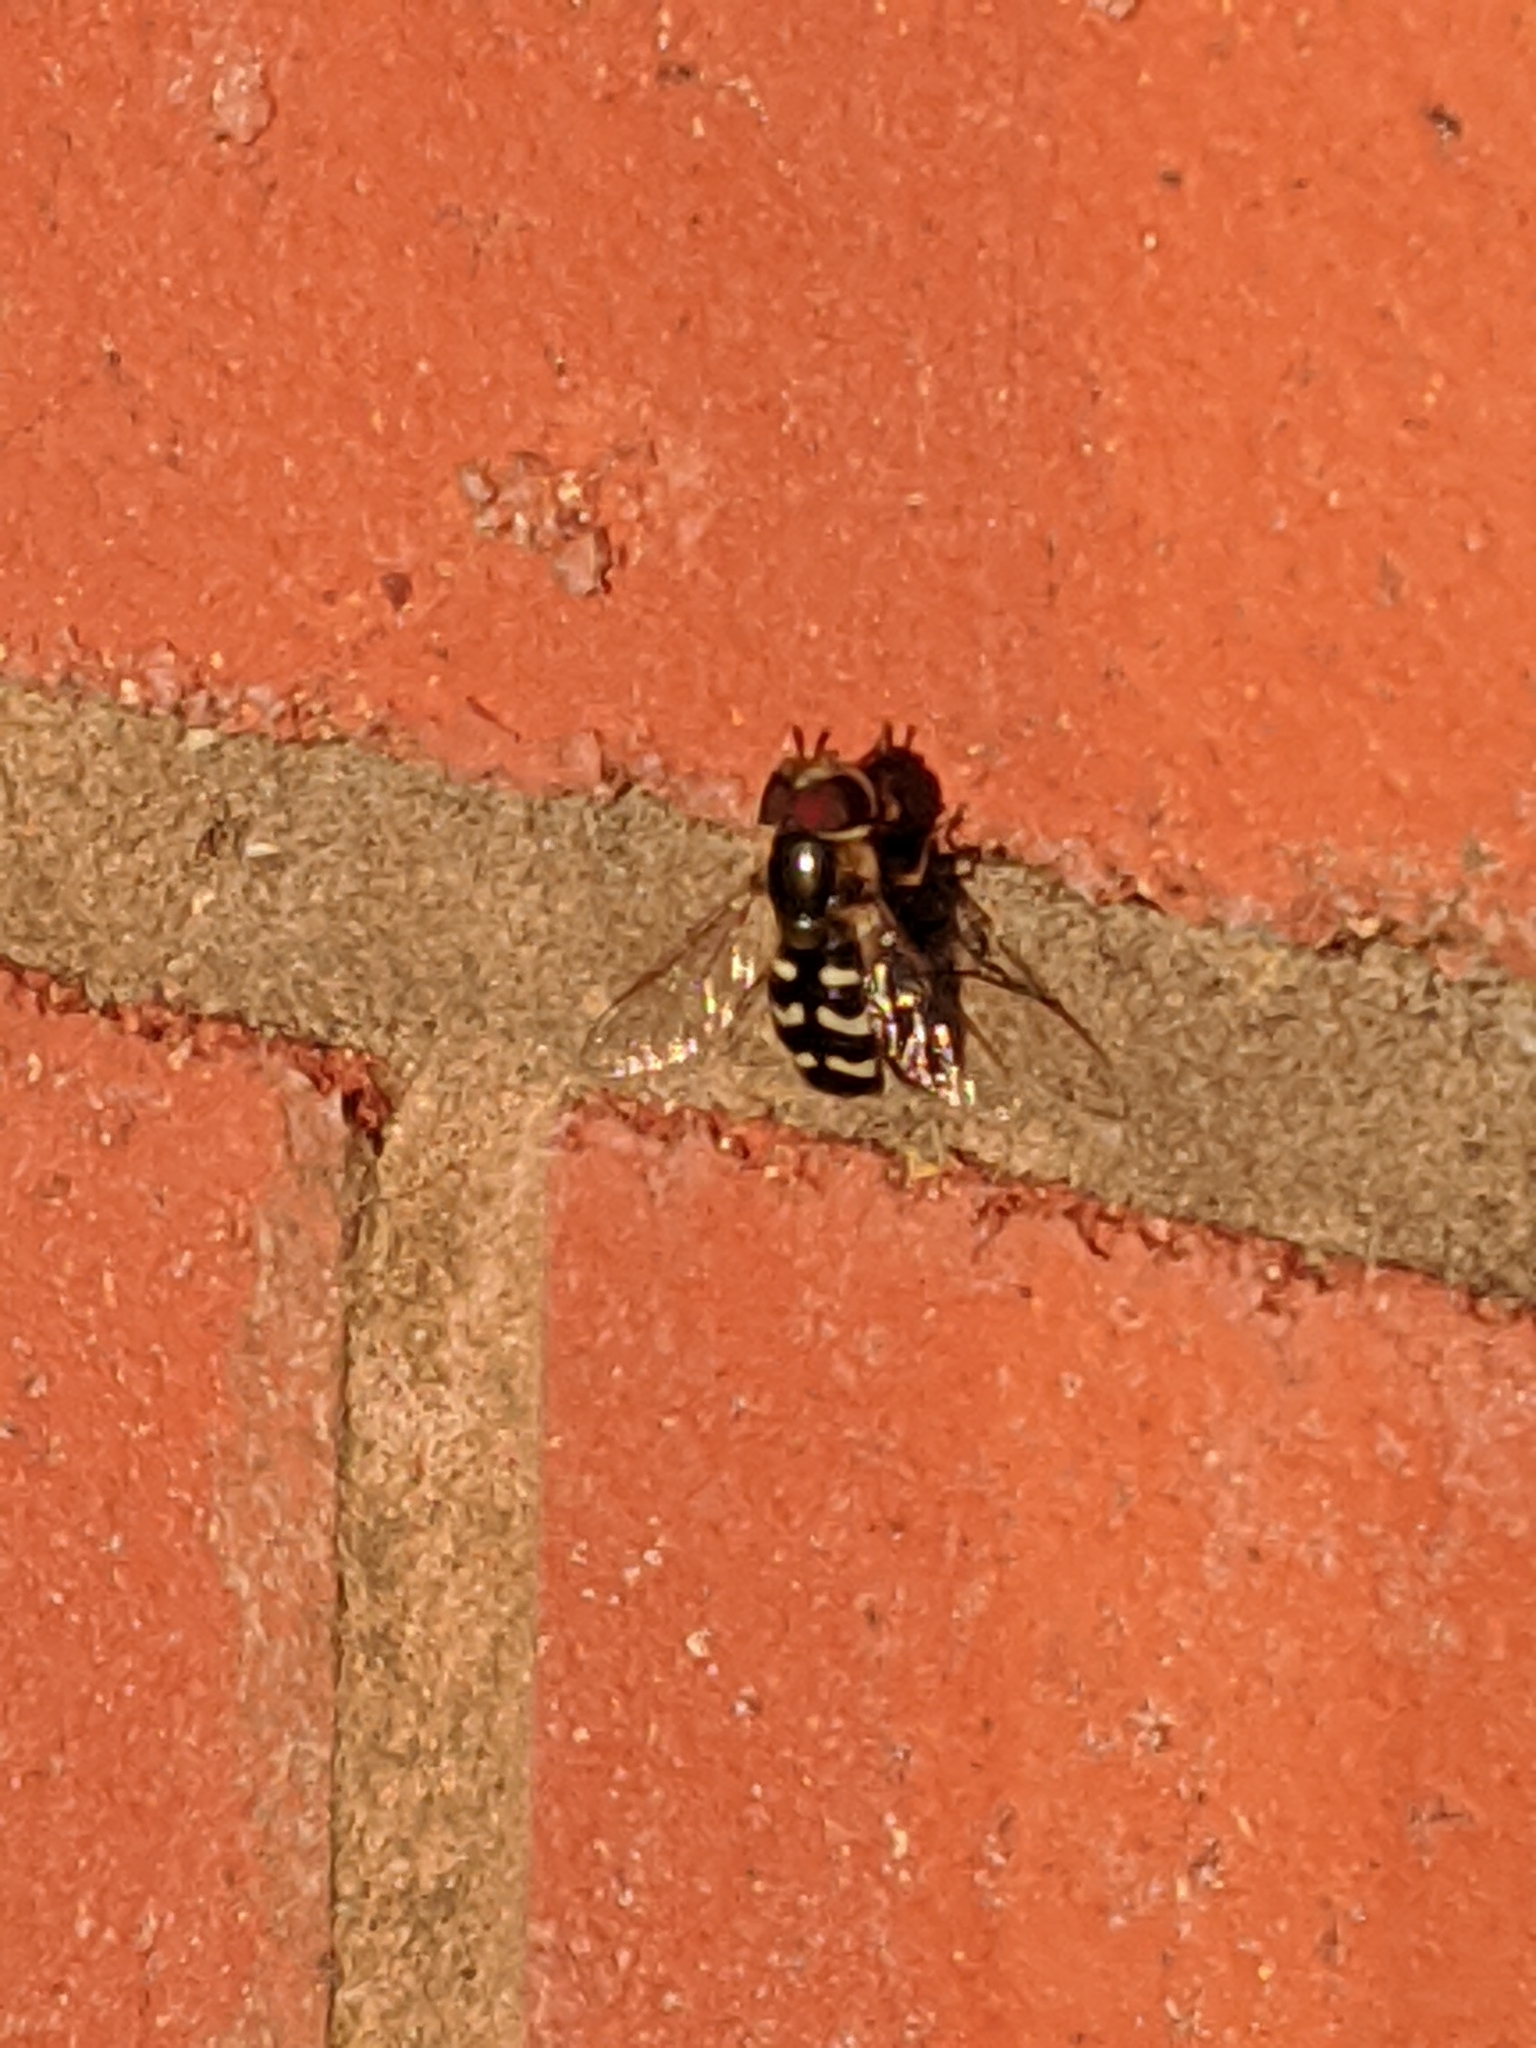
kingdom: Animalia
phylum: Arthropoda
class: Insecta
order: Diptera
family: Syrphidae
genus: Scaeva
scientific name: Scaeva pyrastri
